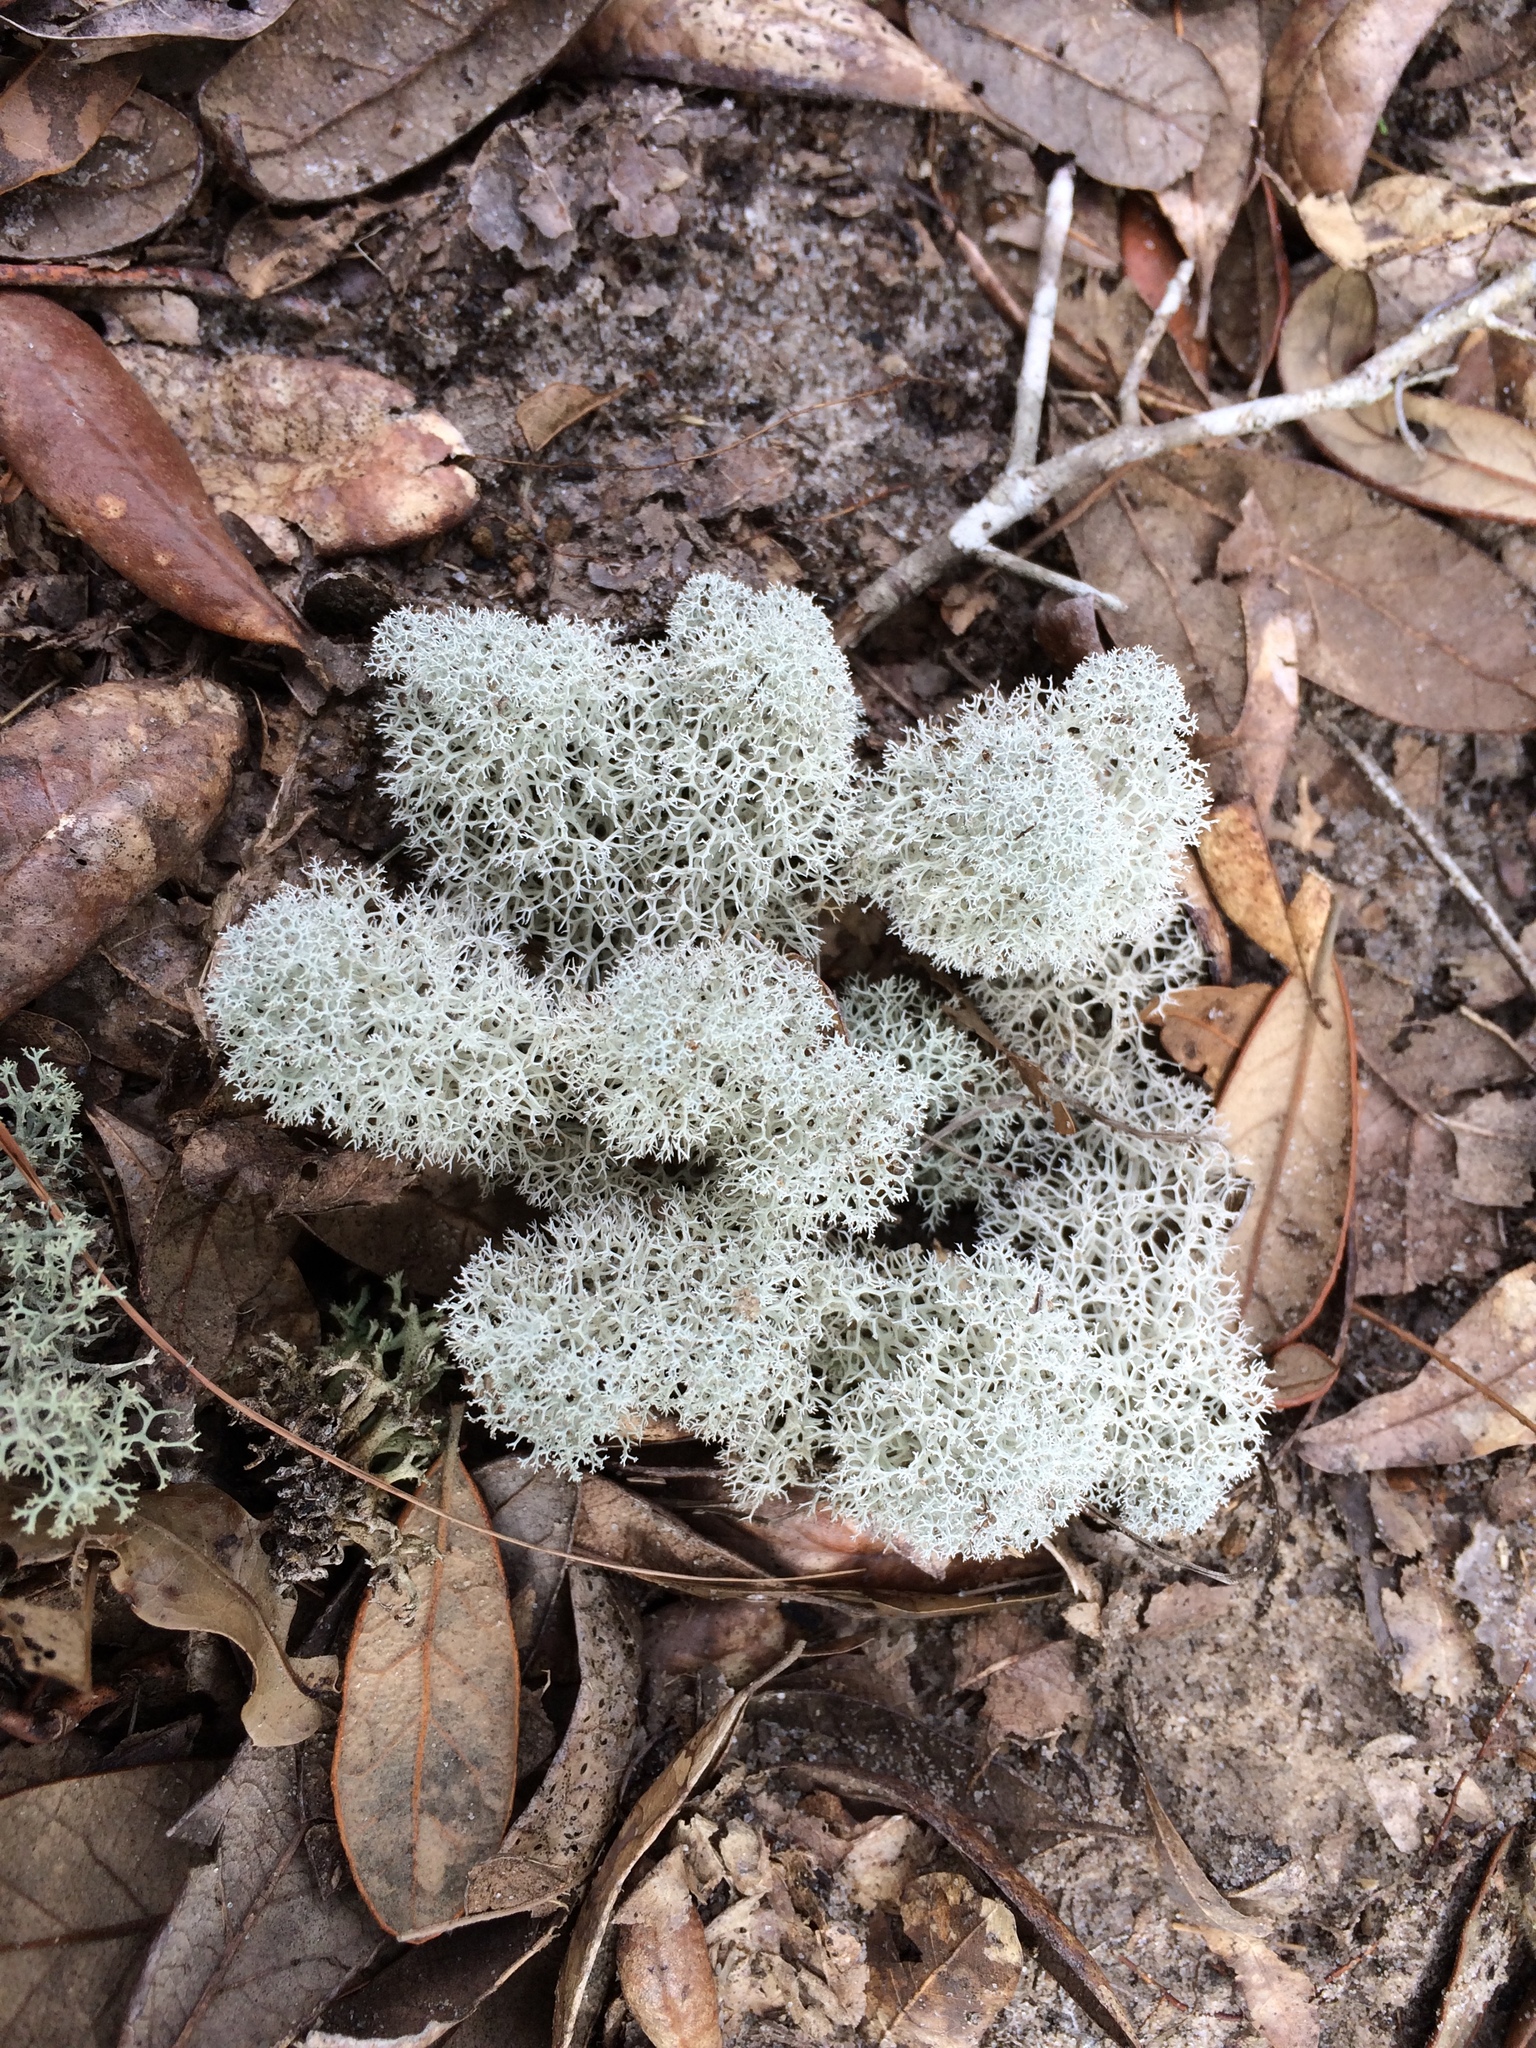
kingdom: Fungi
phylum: Ascomycota
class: Lecanoromycetes
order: Lecanorales
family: Cladoniaceae
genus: Cladonia
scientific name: Cladonia evansii
